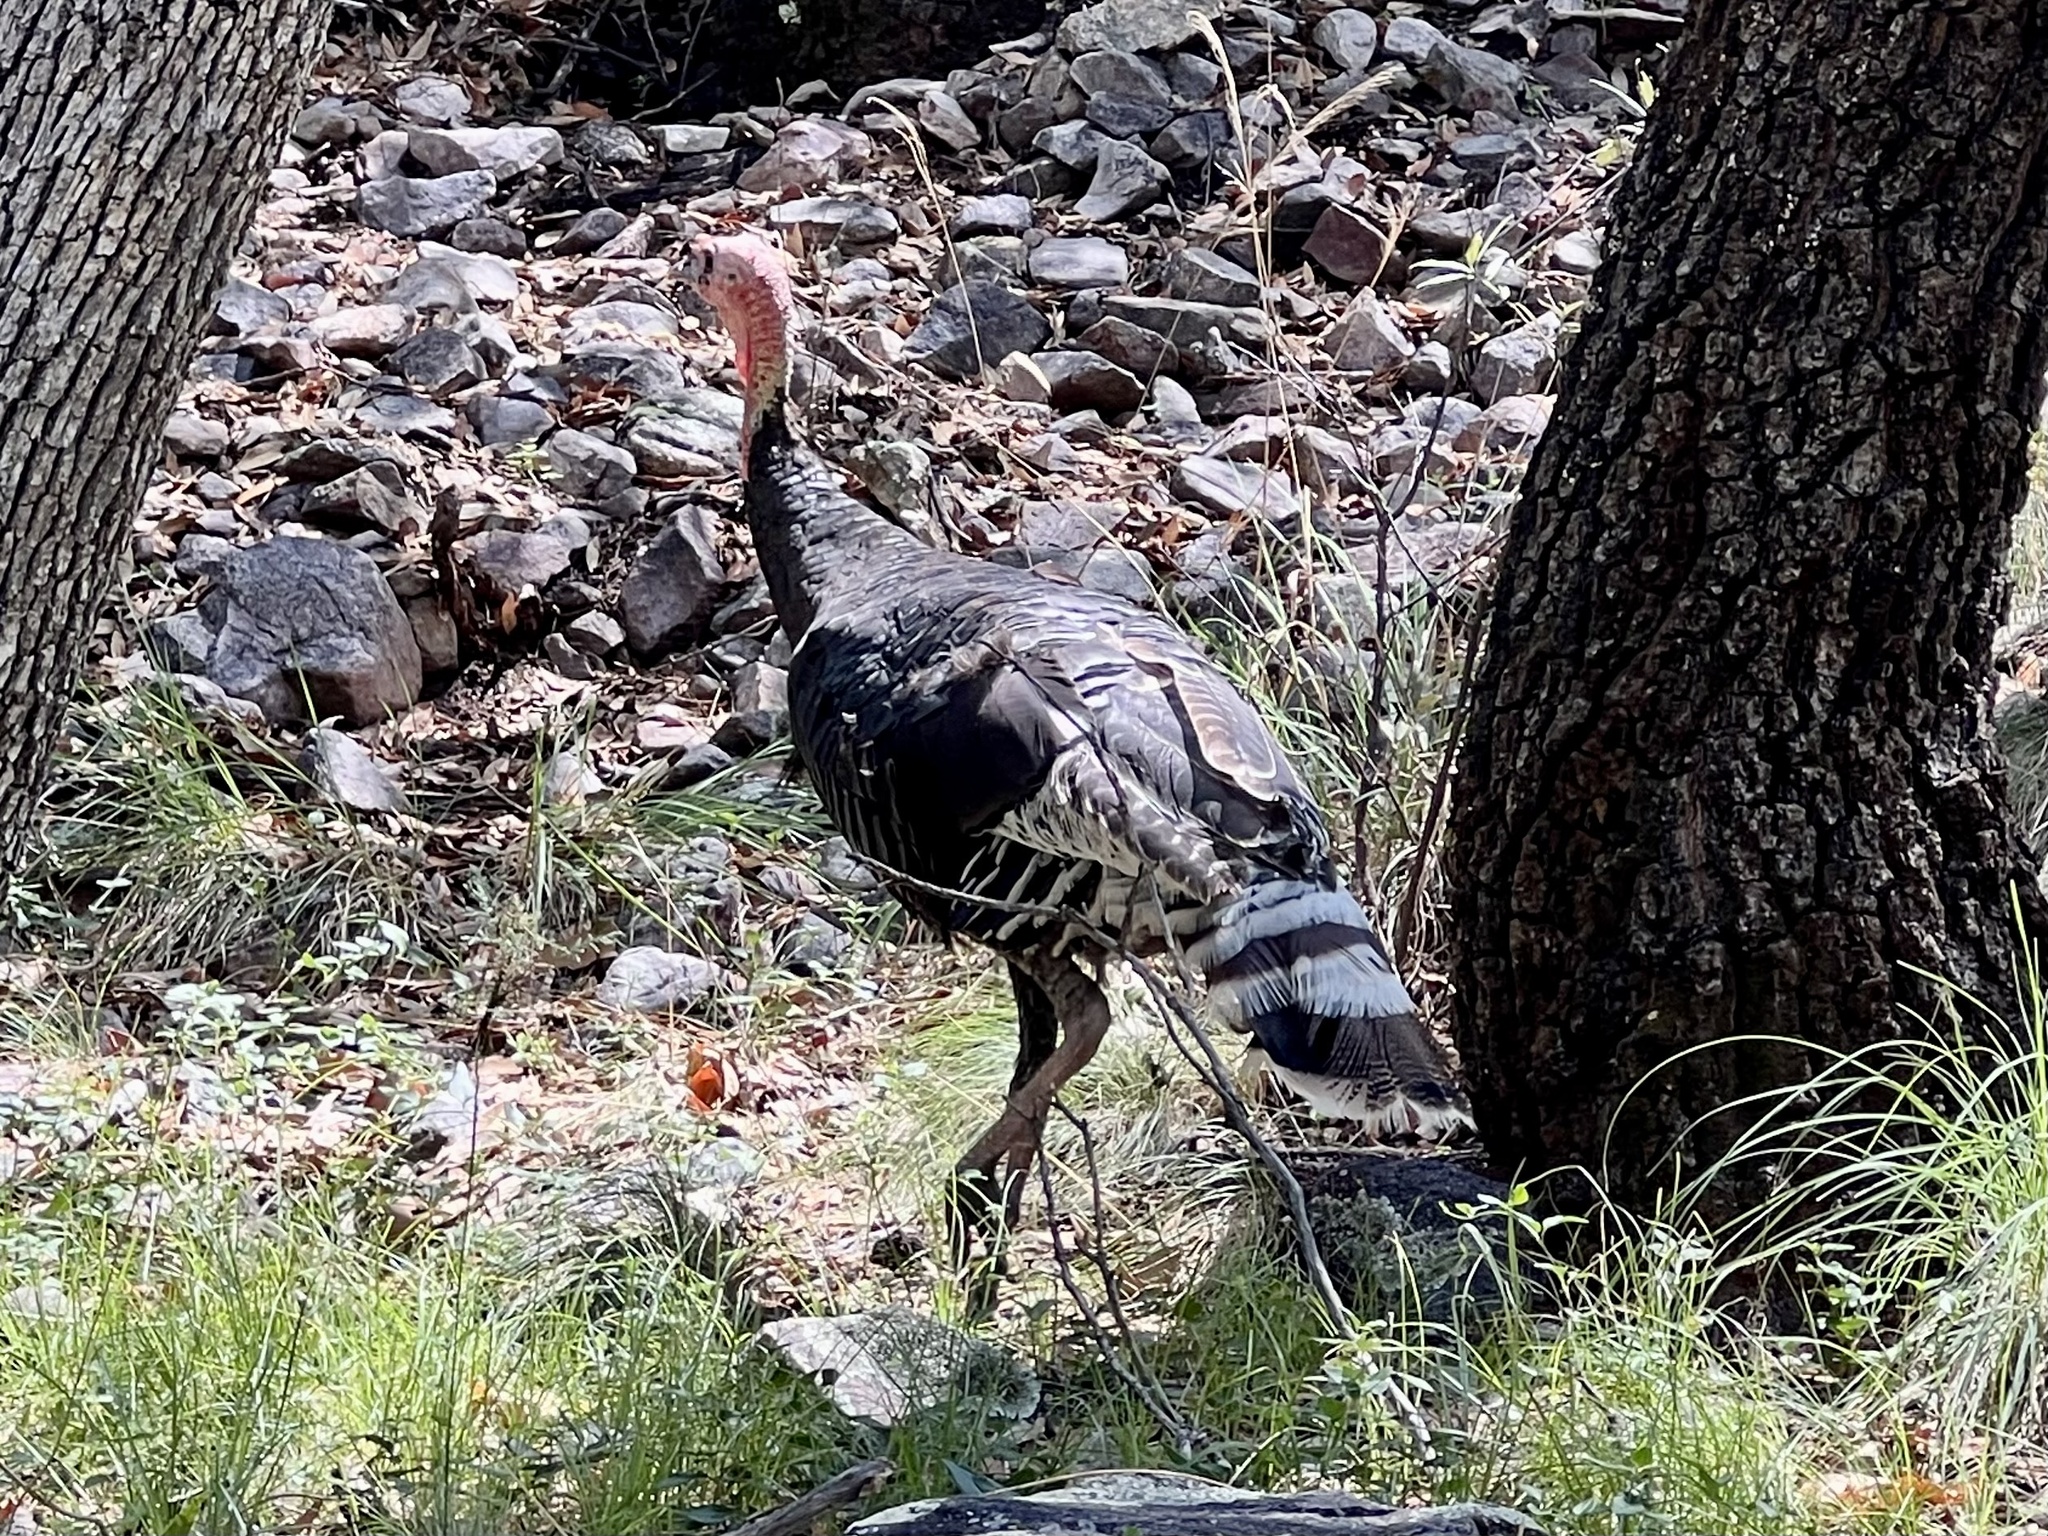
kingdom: Animalia
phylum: Chordata
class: Aves
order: Galliformes
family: Phasianidae
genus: Meleagris
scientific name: Meleagris gallopavo
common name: Wild turkey
